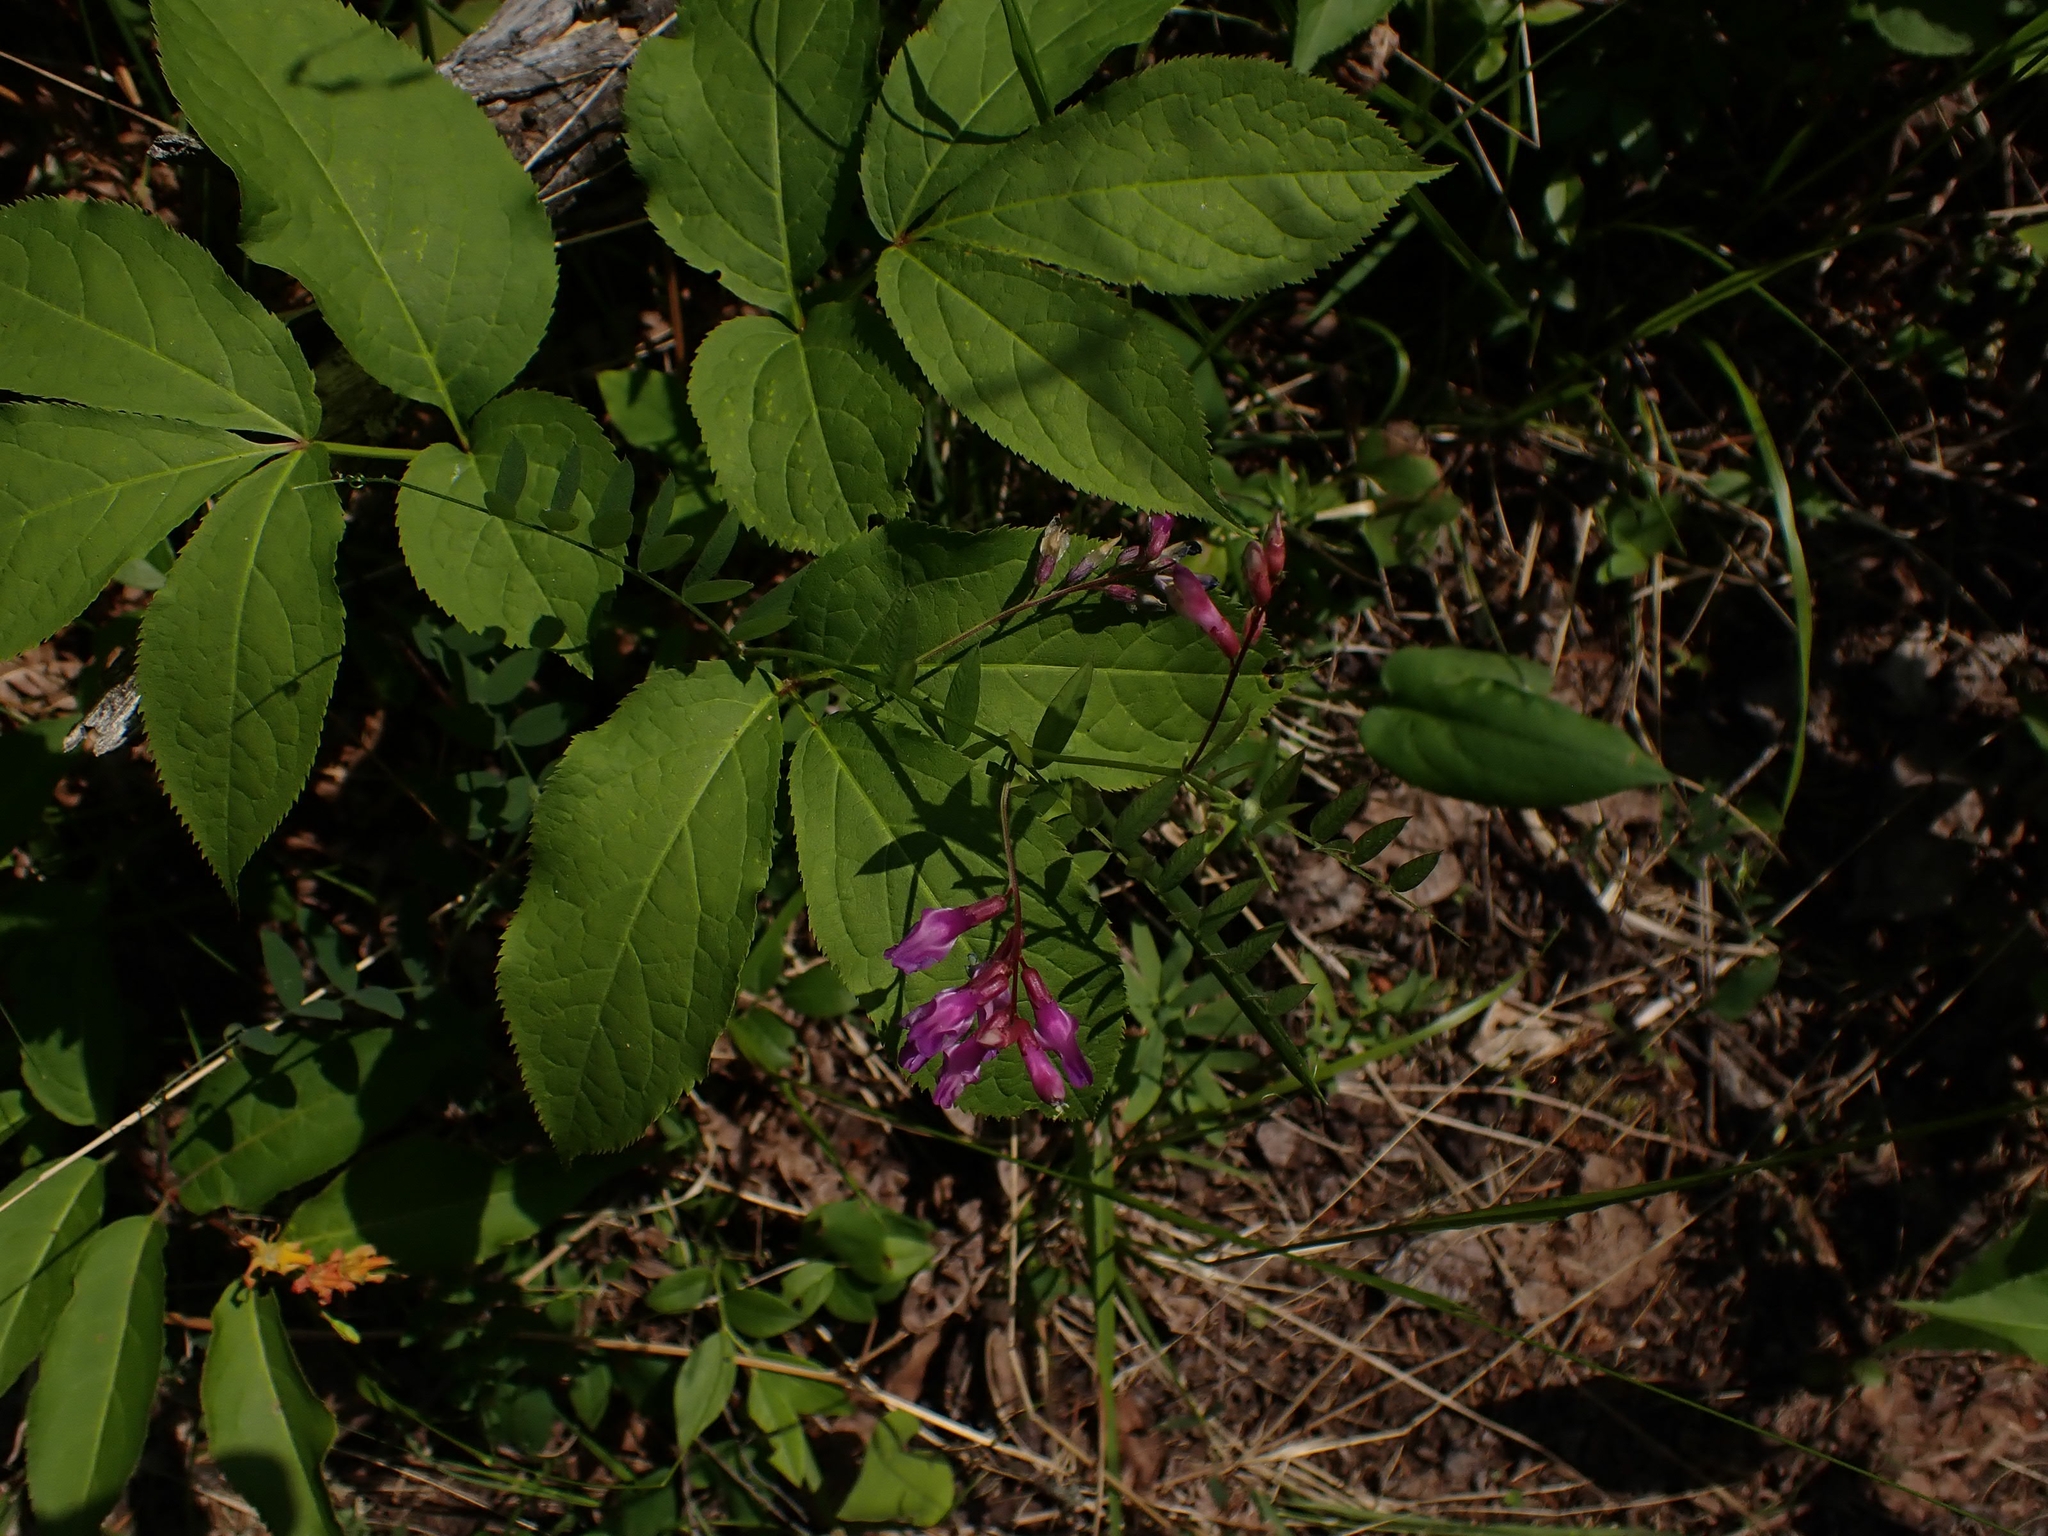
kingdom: Plantae
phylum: Tracheophyta
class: Magnoliopsida
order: Fabales
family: Fabaceae
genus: Vicia
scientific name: Vicia americana
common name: American vetch
